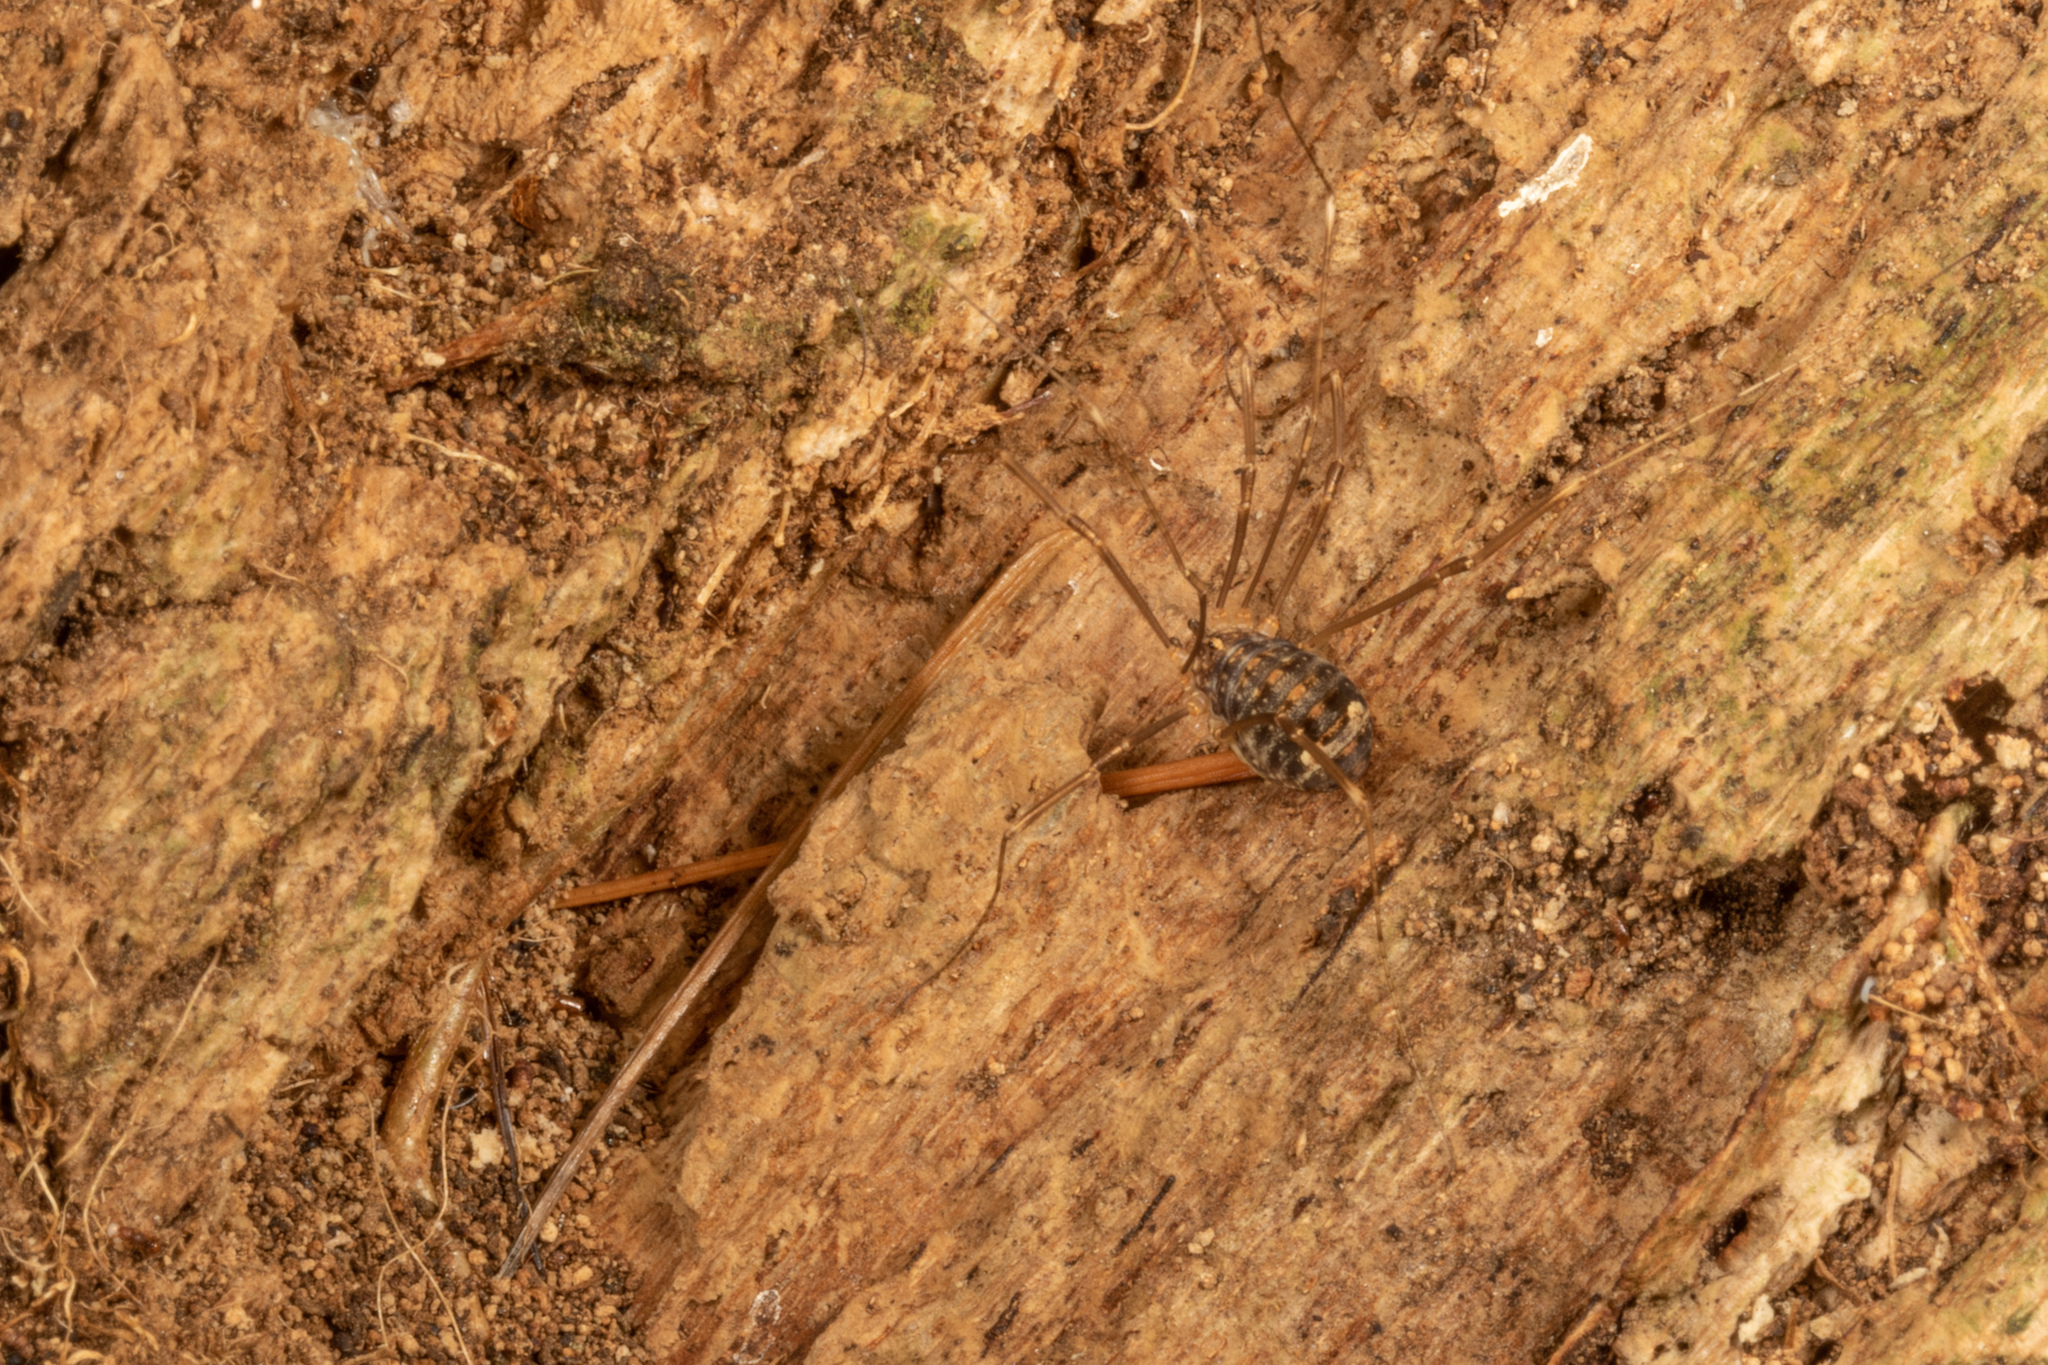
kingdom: Animalia
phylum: Arthropoda
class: Arachnida
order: Opiliones
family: Sclerosomatidae
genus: Nelima
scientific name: Nelima doriae
